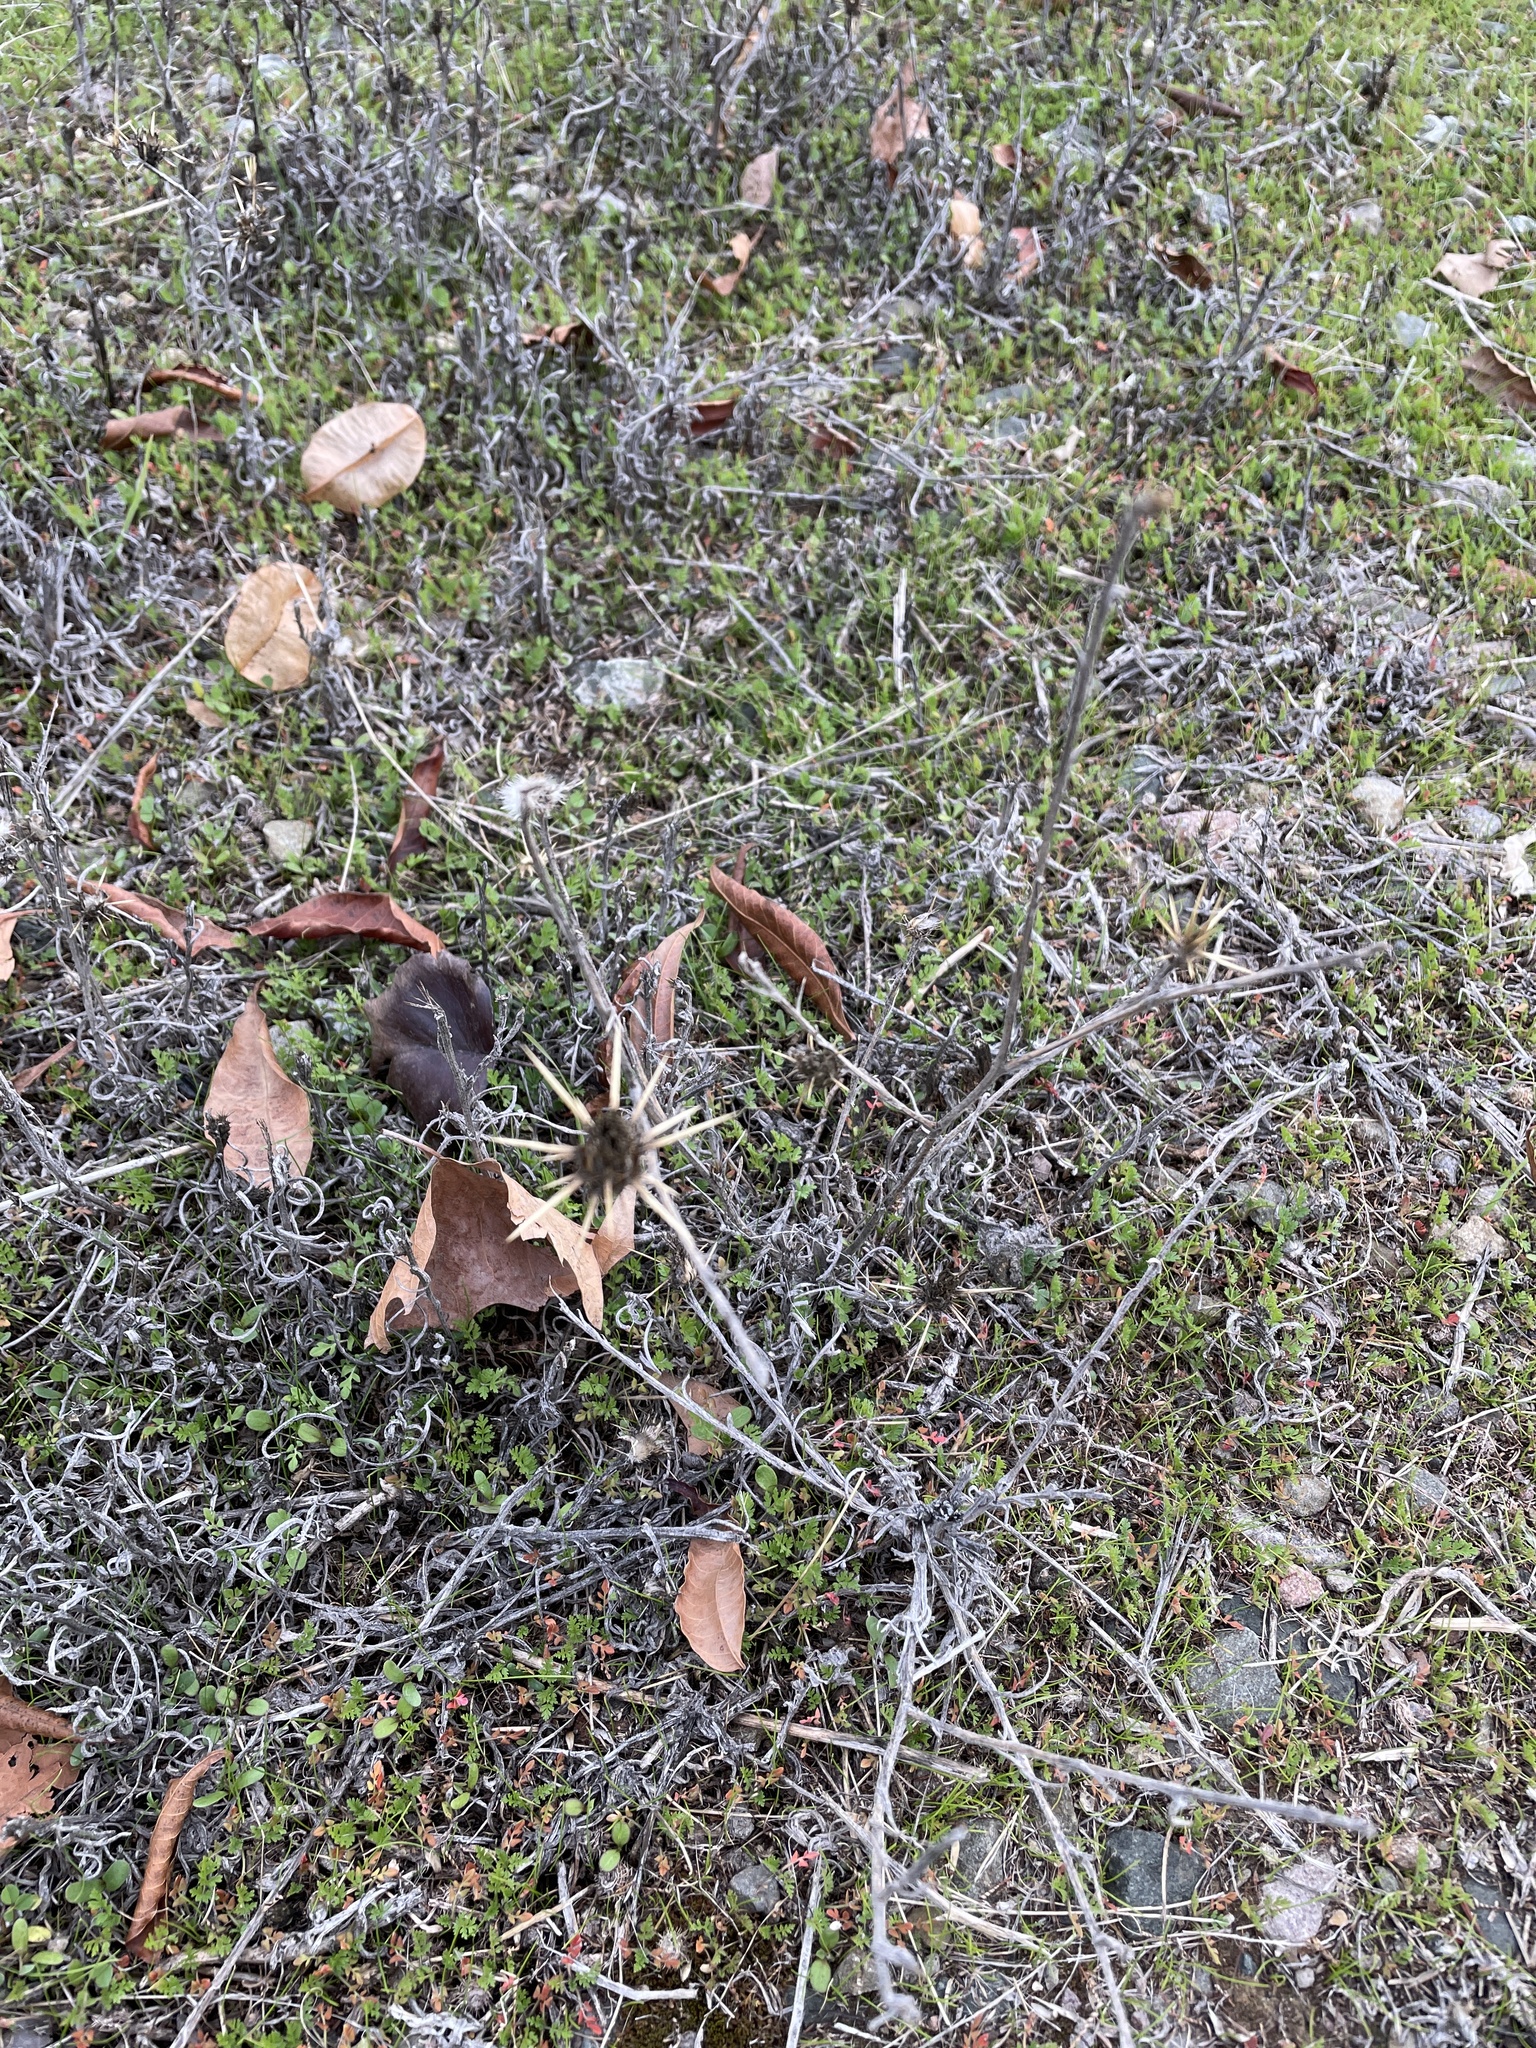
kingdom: Plantae
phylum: Tracheophyta
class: Magnoliopsida
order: Asterales
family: Asteraceae
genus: Centaurea
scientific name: Centaurea solstitialis
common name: Yellow star-thistle
